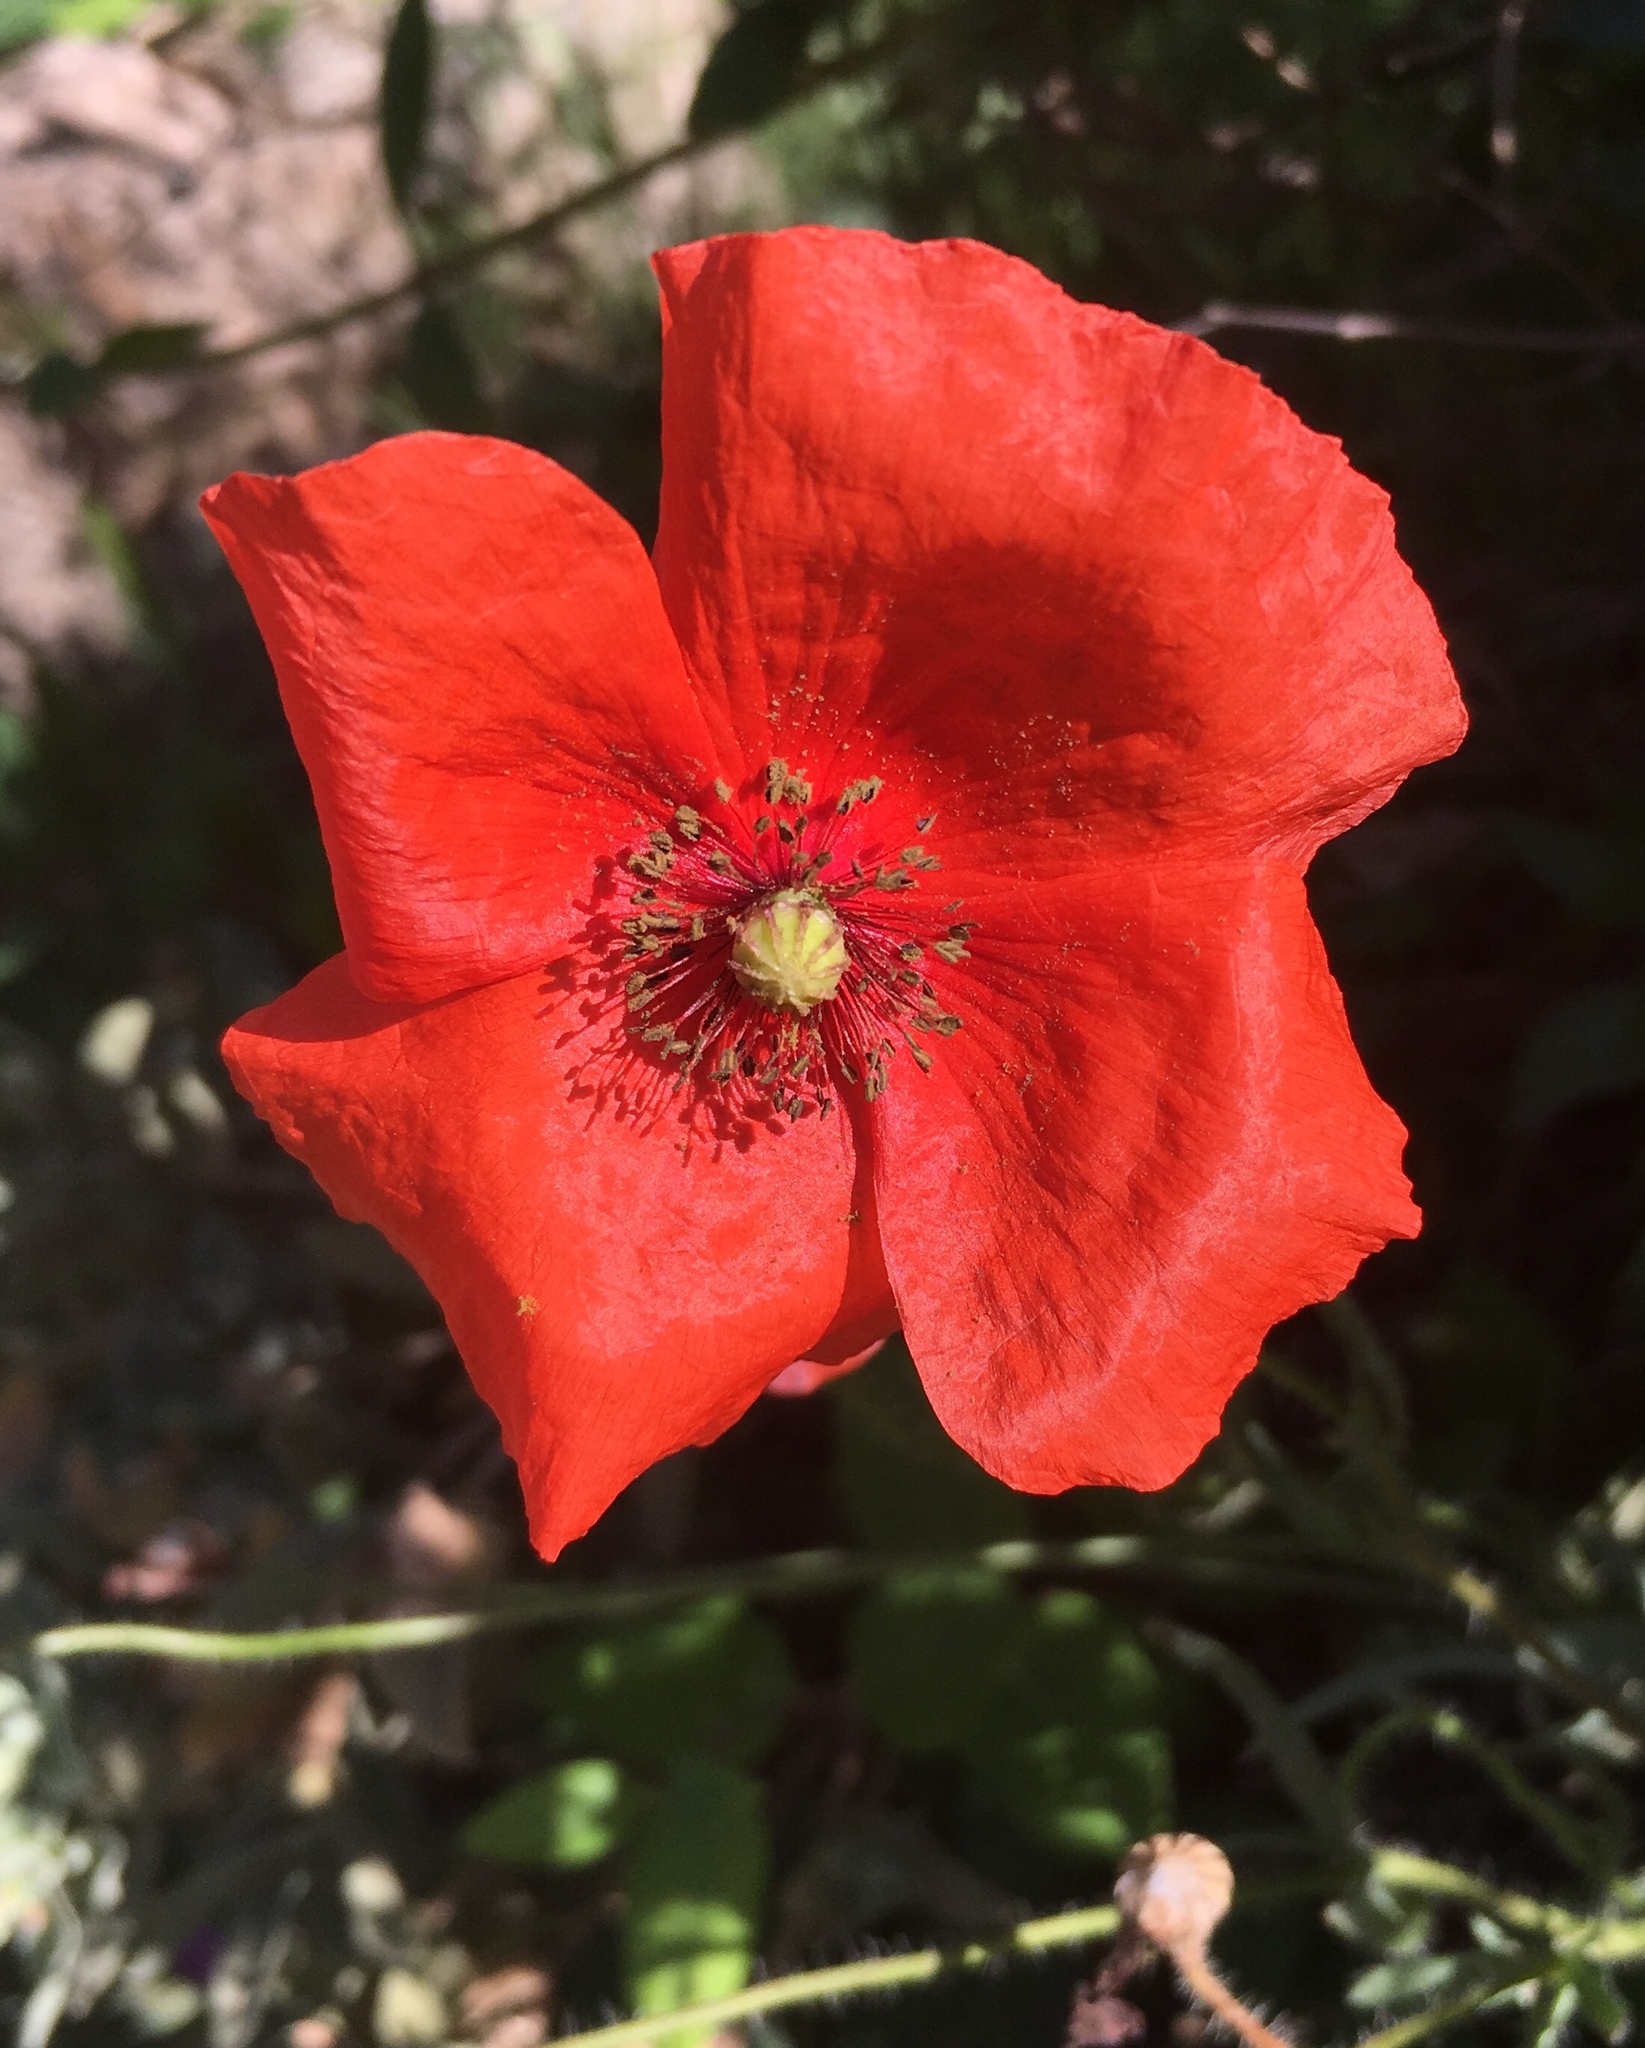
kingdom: Plantae
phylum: Tracheophyta
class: Magnoliopsida
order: Ranunculales
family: Papaveraceae
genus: Papaver
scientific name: Papaver rhoeas
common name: Corn poppy
